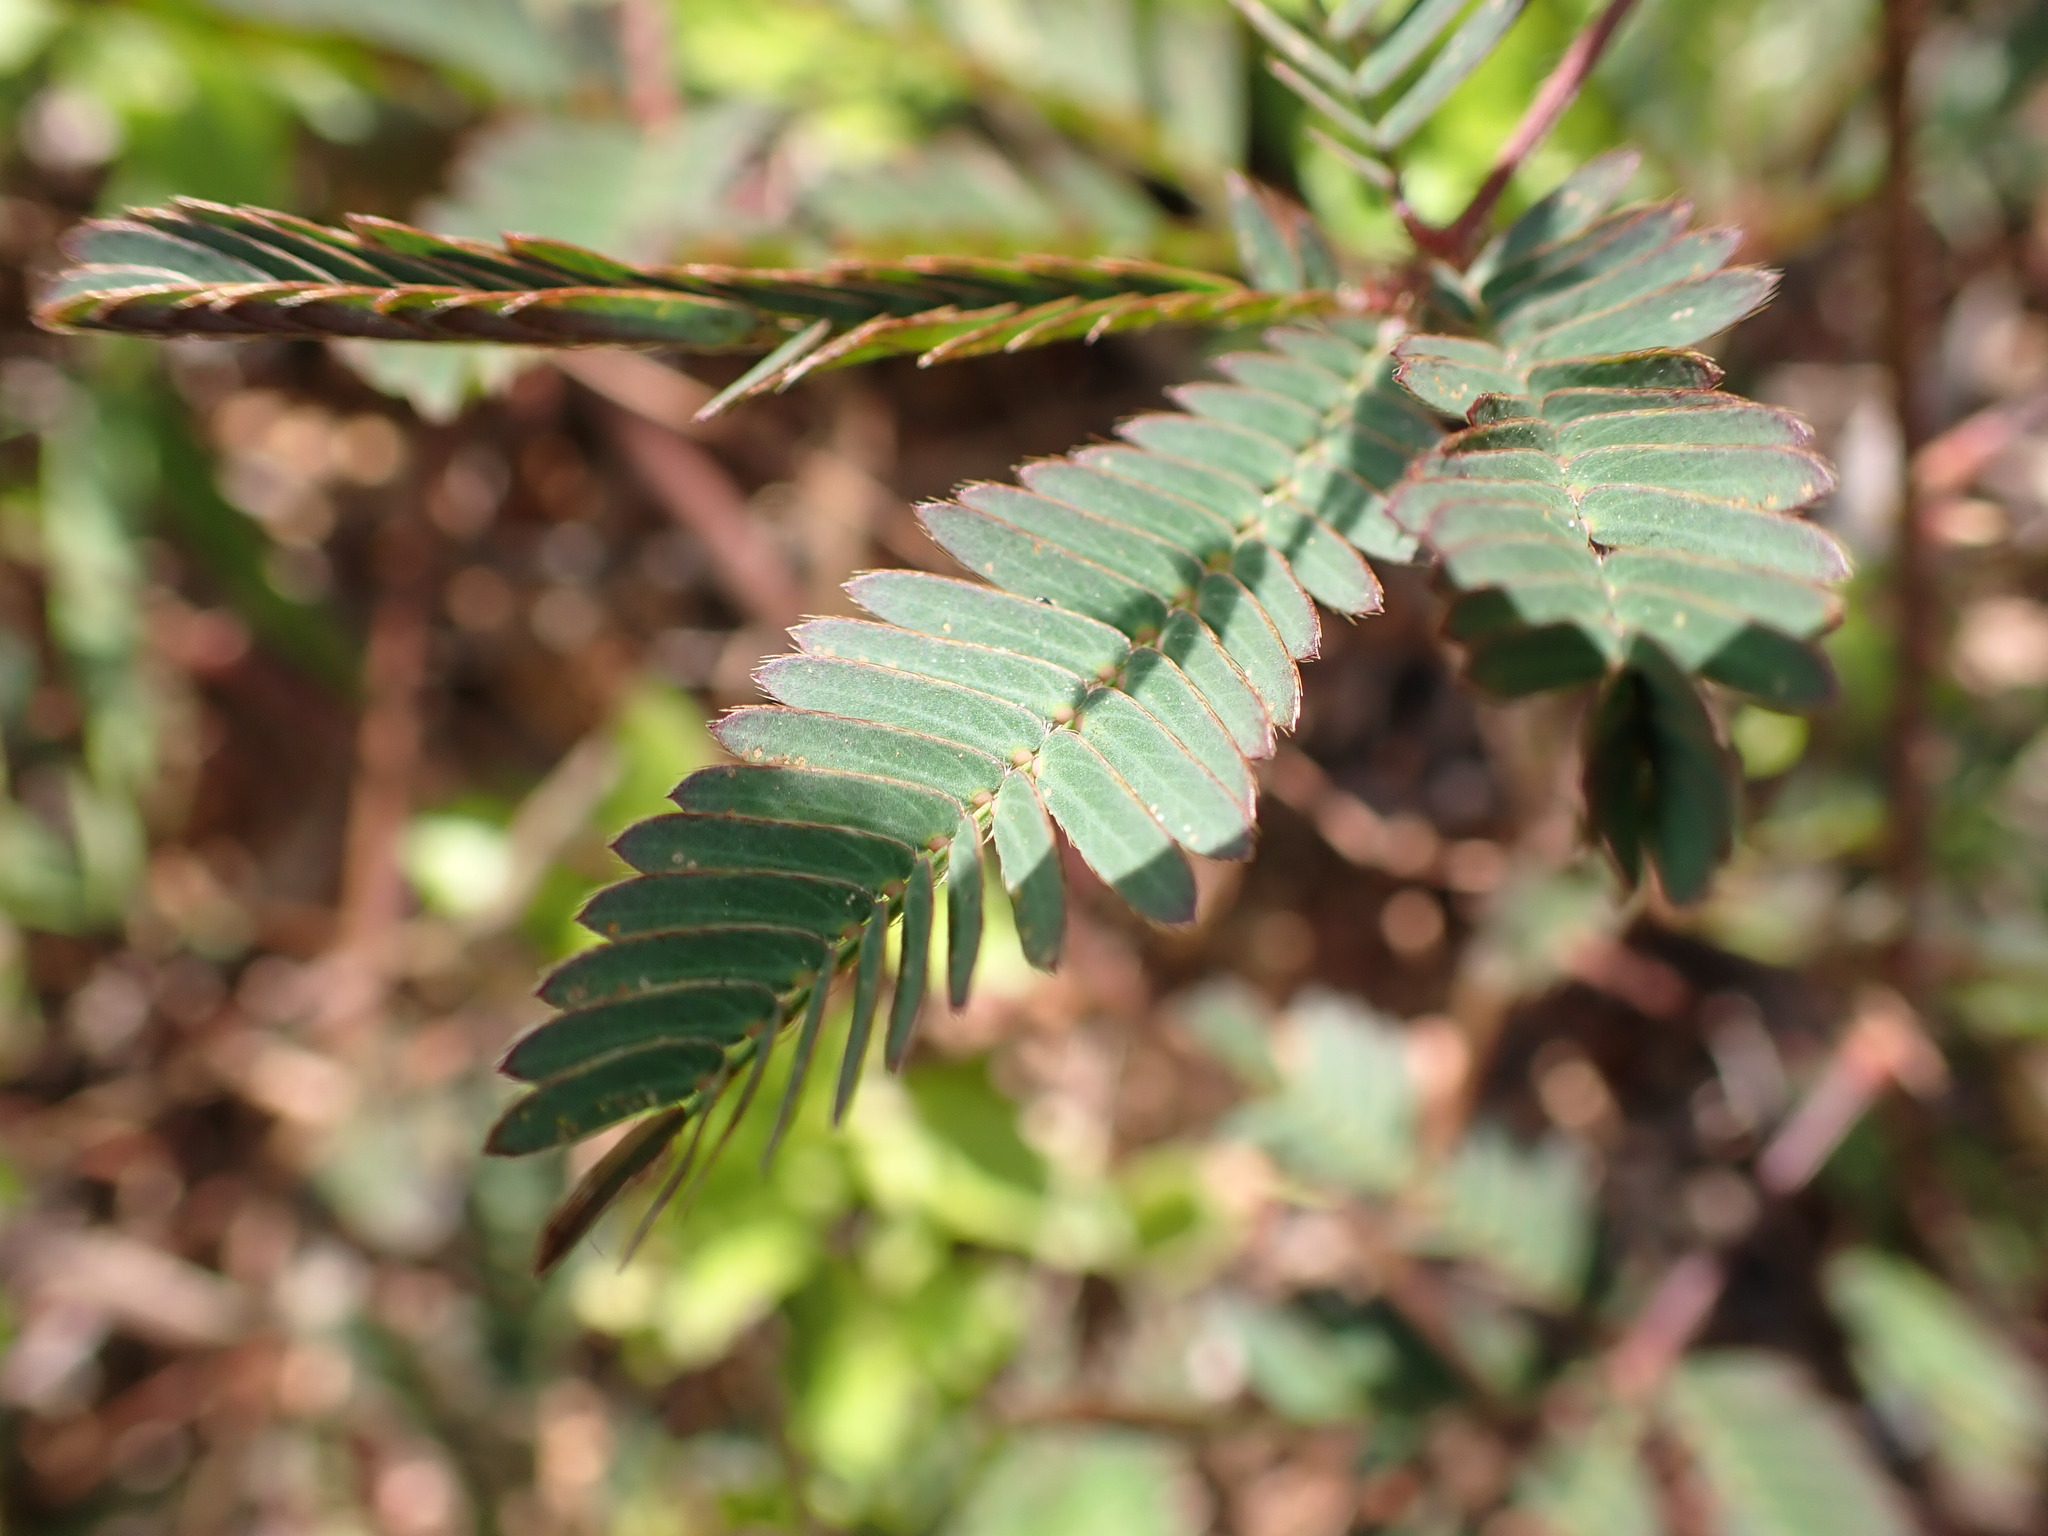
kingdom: Plantae
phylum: Tracheophyta
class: Magnoliopsida
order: Fabales
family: Fabaceae
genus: Mimosa
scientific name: Mimosa pudica
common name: Sensitive plant
